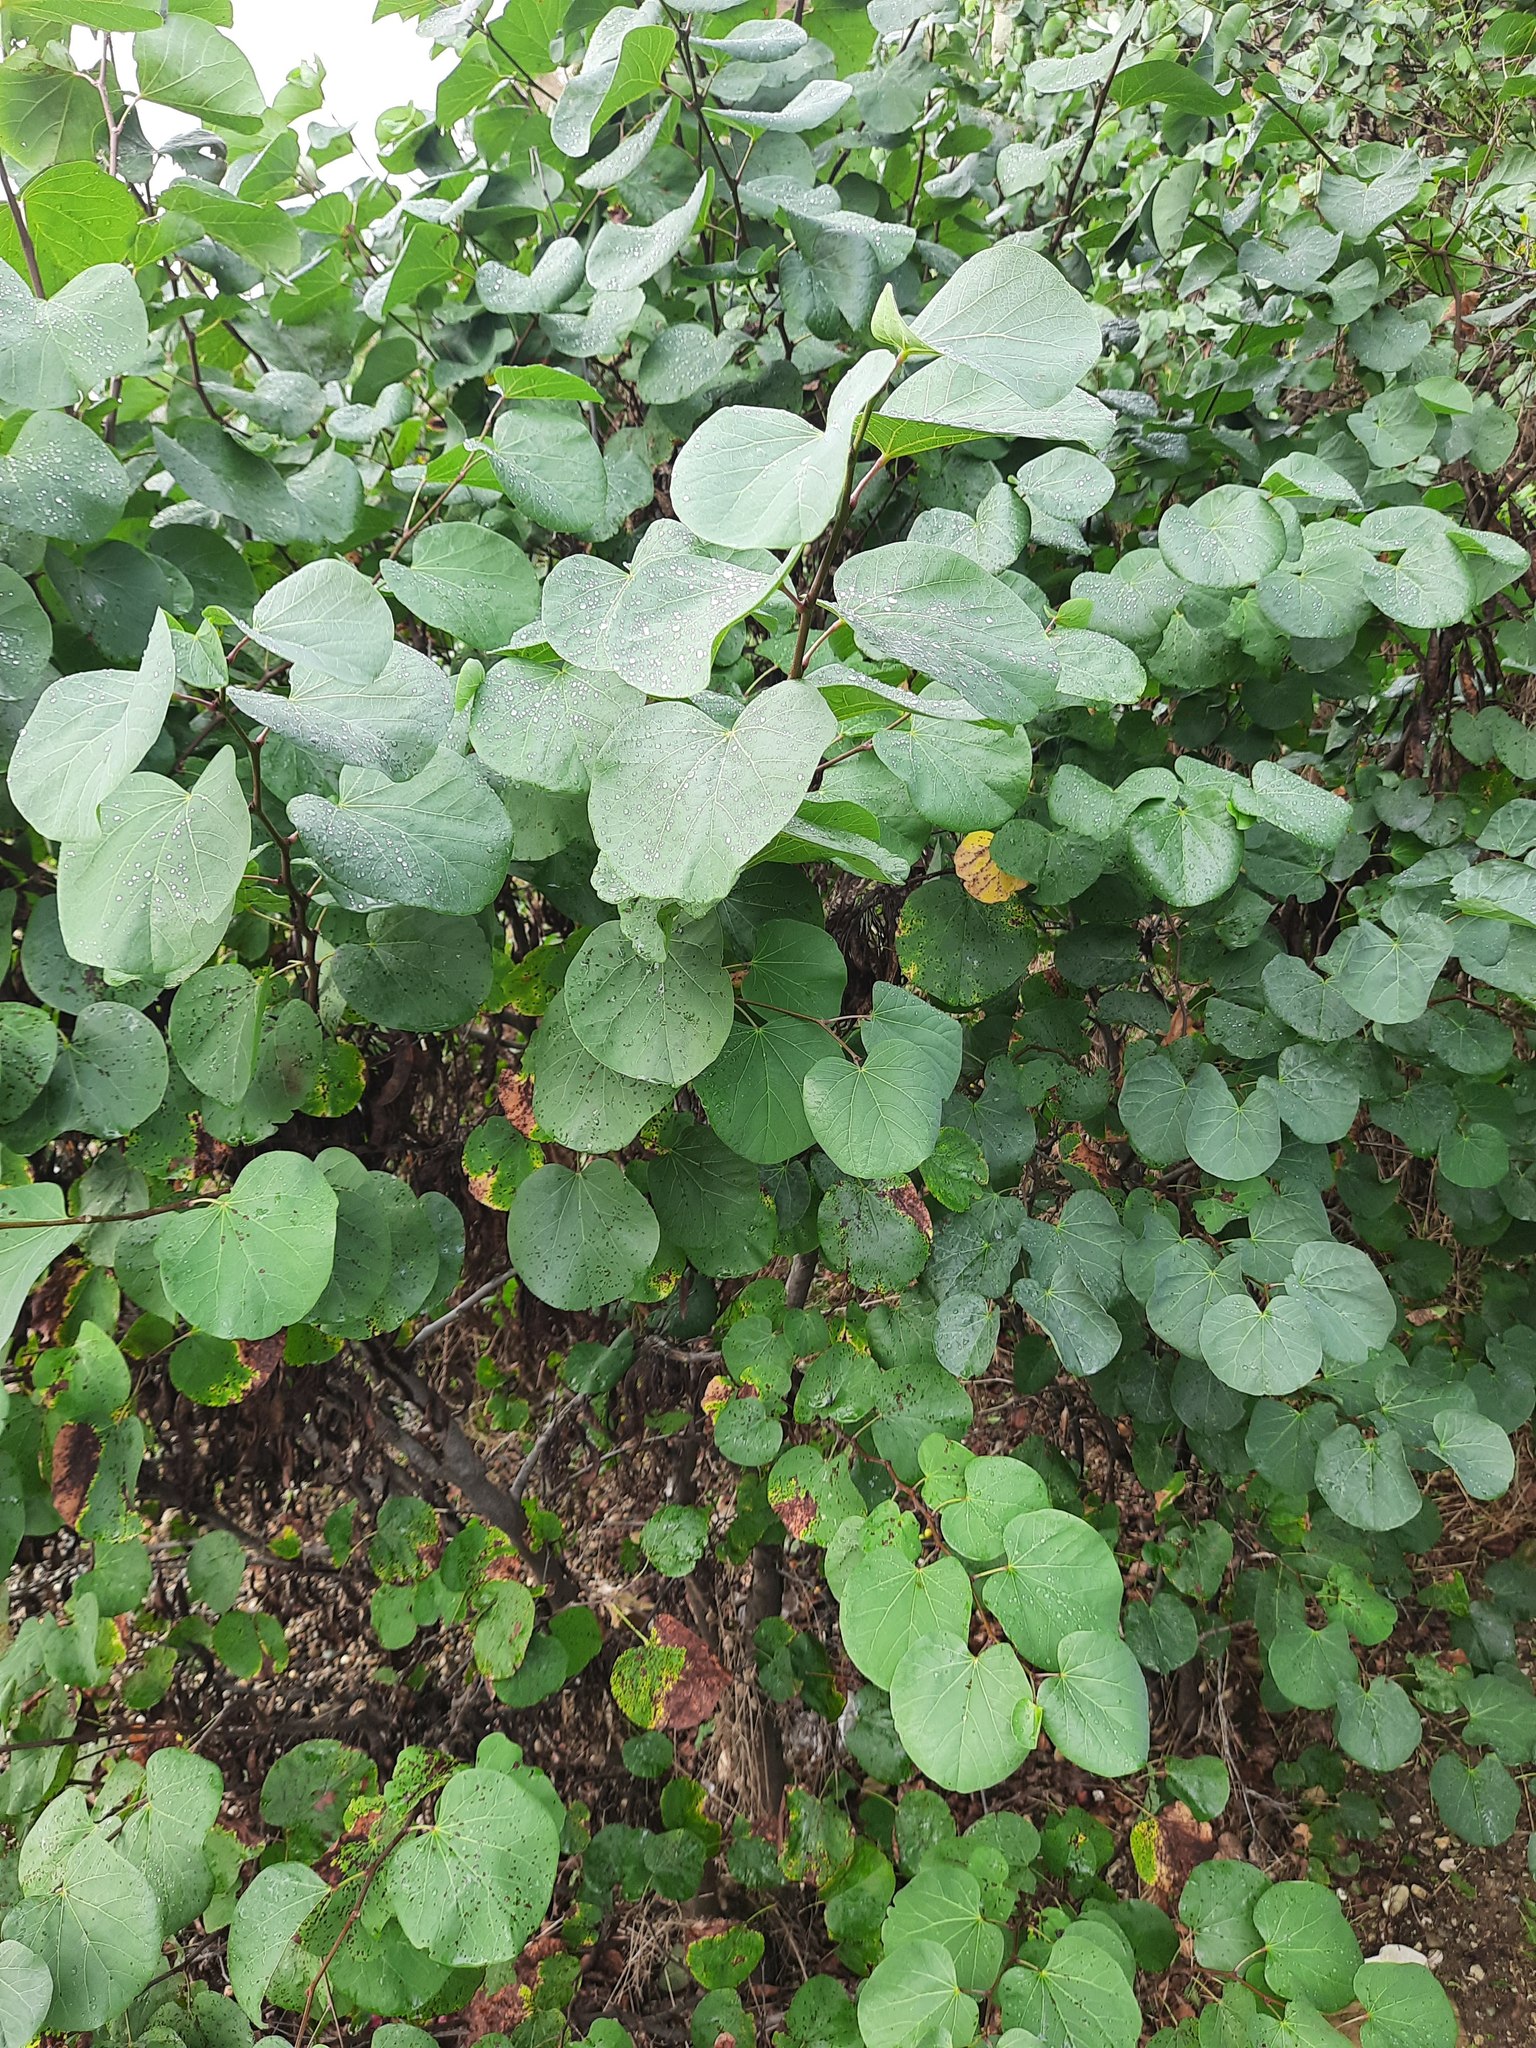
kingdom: Plantae
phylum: Tracheophyta
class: Magnoliopsida
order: Fabales
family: Fabaceae
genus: Cercis
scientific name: Cercis siliquastrum
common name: Judas tree
